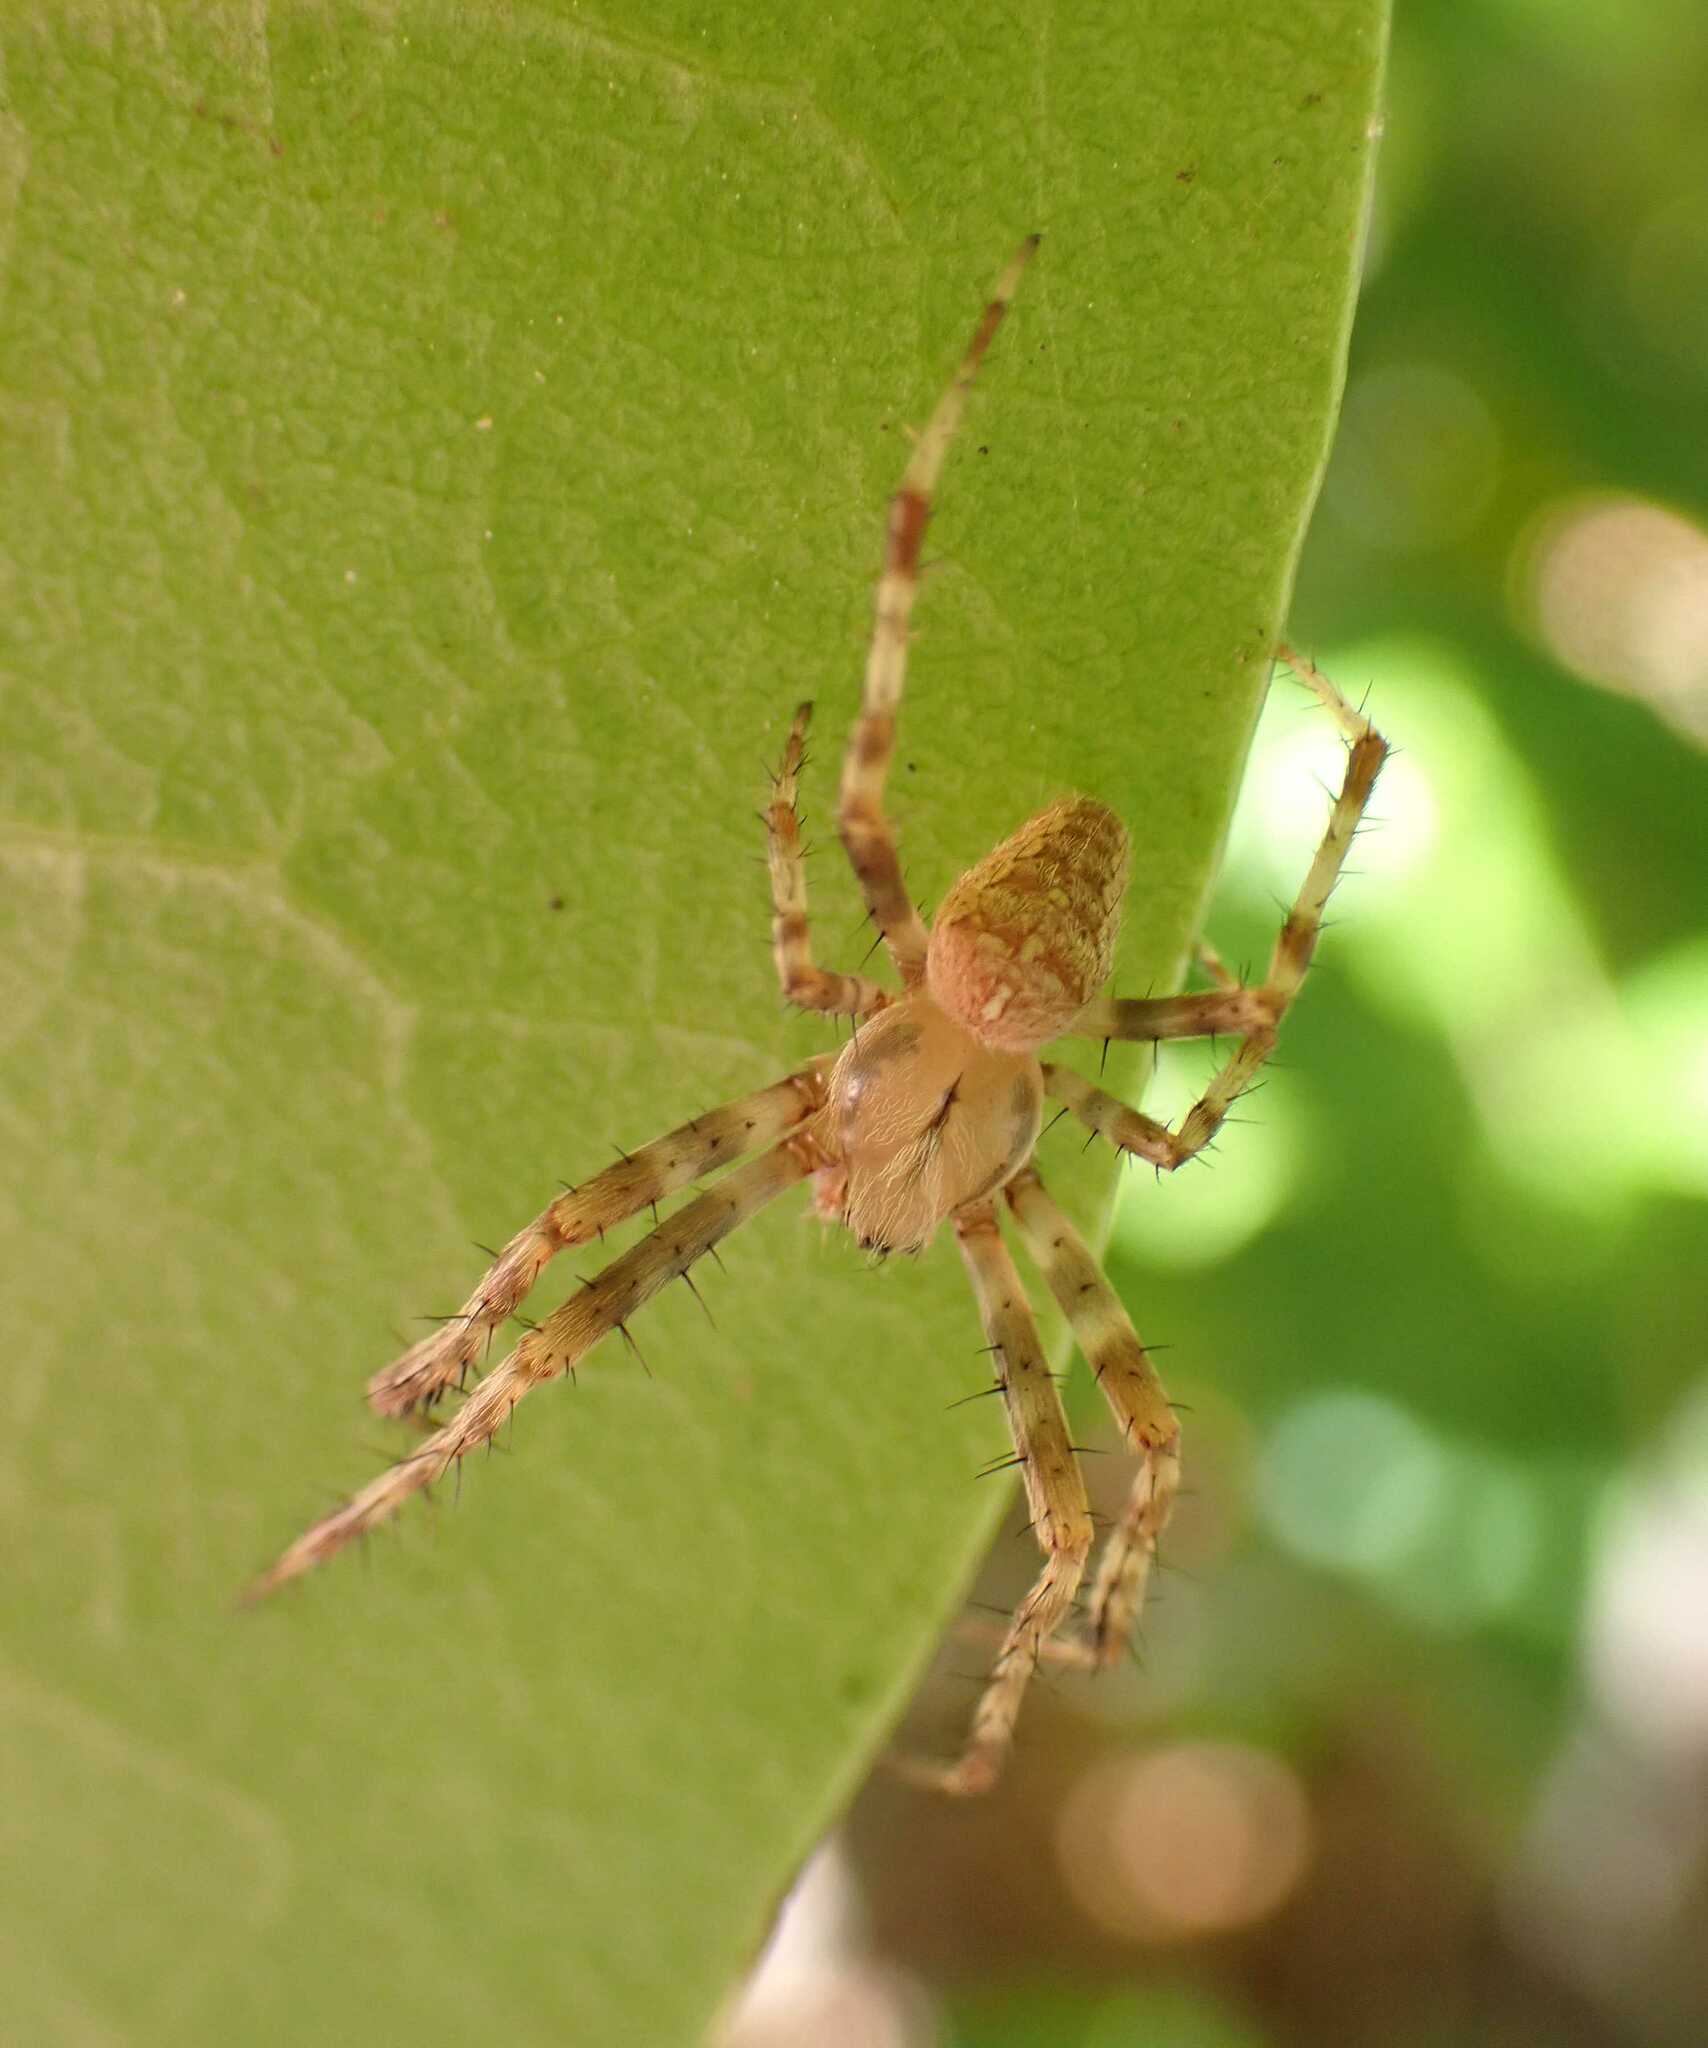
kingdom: Animalia
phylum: Arthropoda
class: Arachnida
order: Araneae
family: Araneidae
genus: Araneus
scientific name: Araneus diadematus
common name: Cross orbweaver
